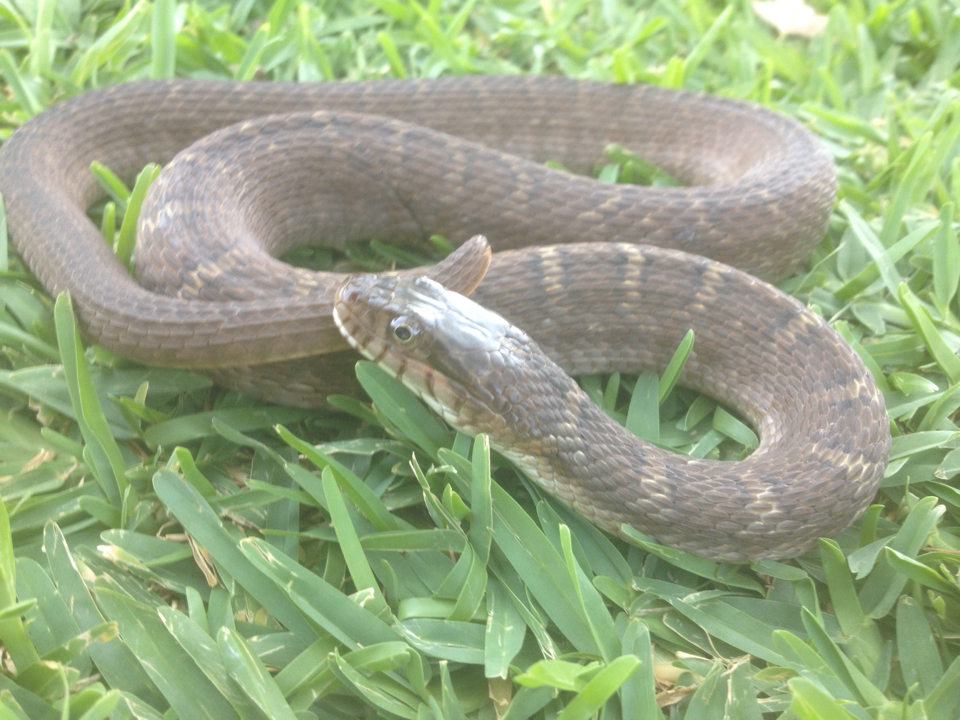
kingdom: Animalia
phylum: Chordata
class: Squamata
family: Colubridae
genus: Nerodia
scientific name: Nerodia erythrogaster
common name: Plainbelly water snake
